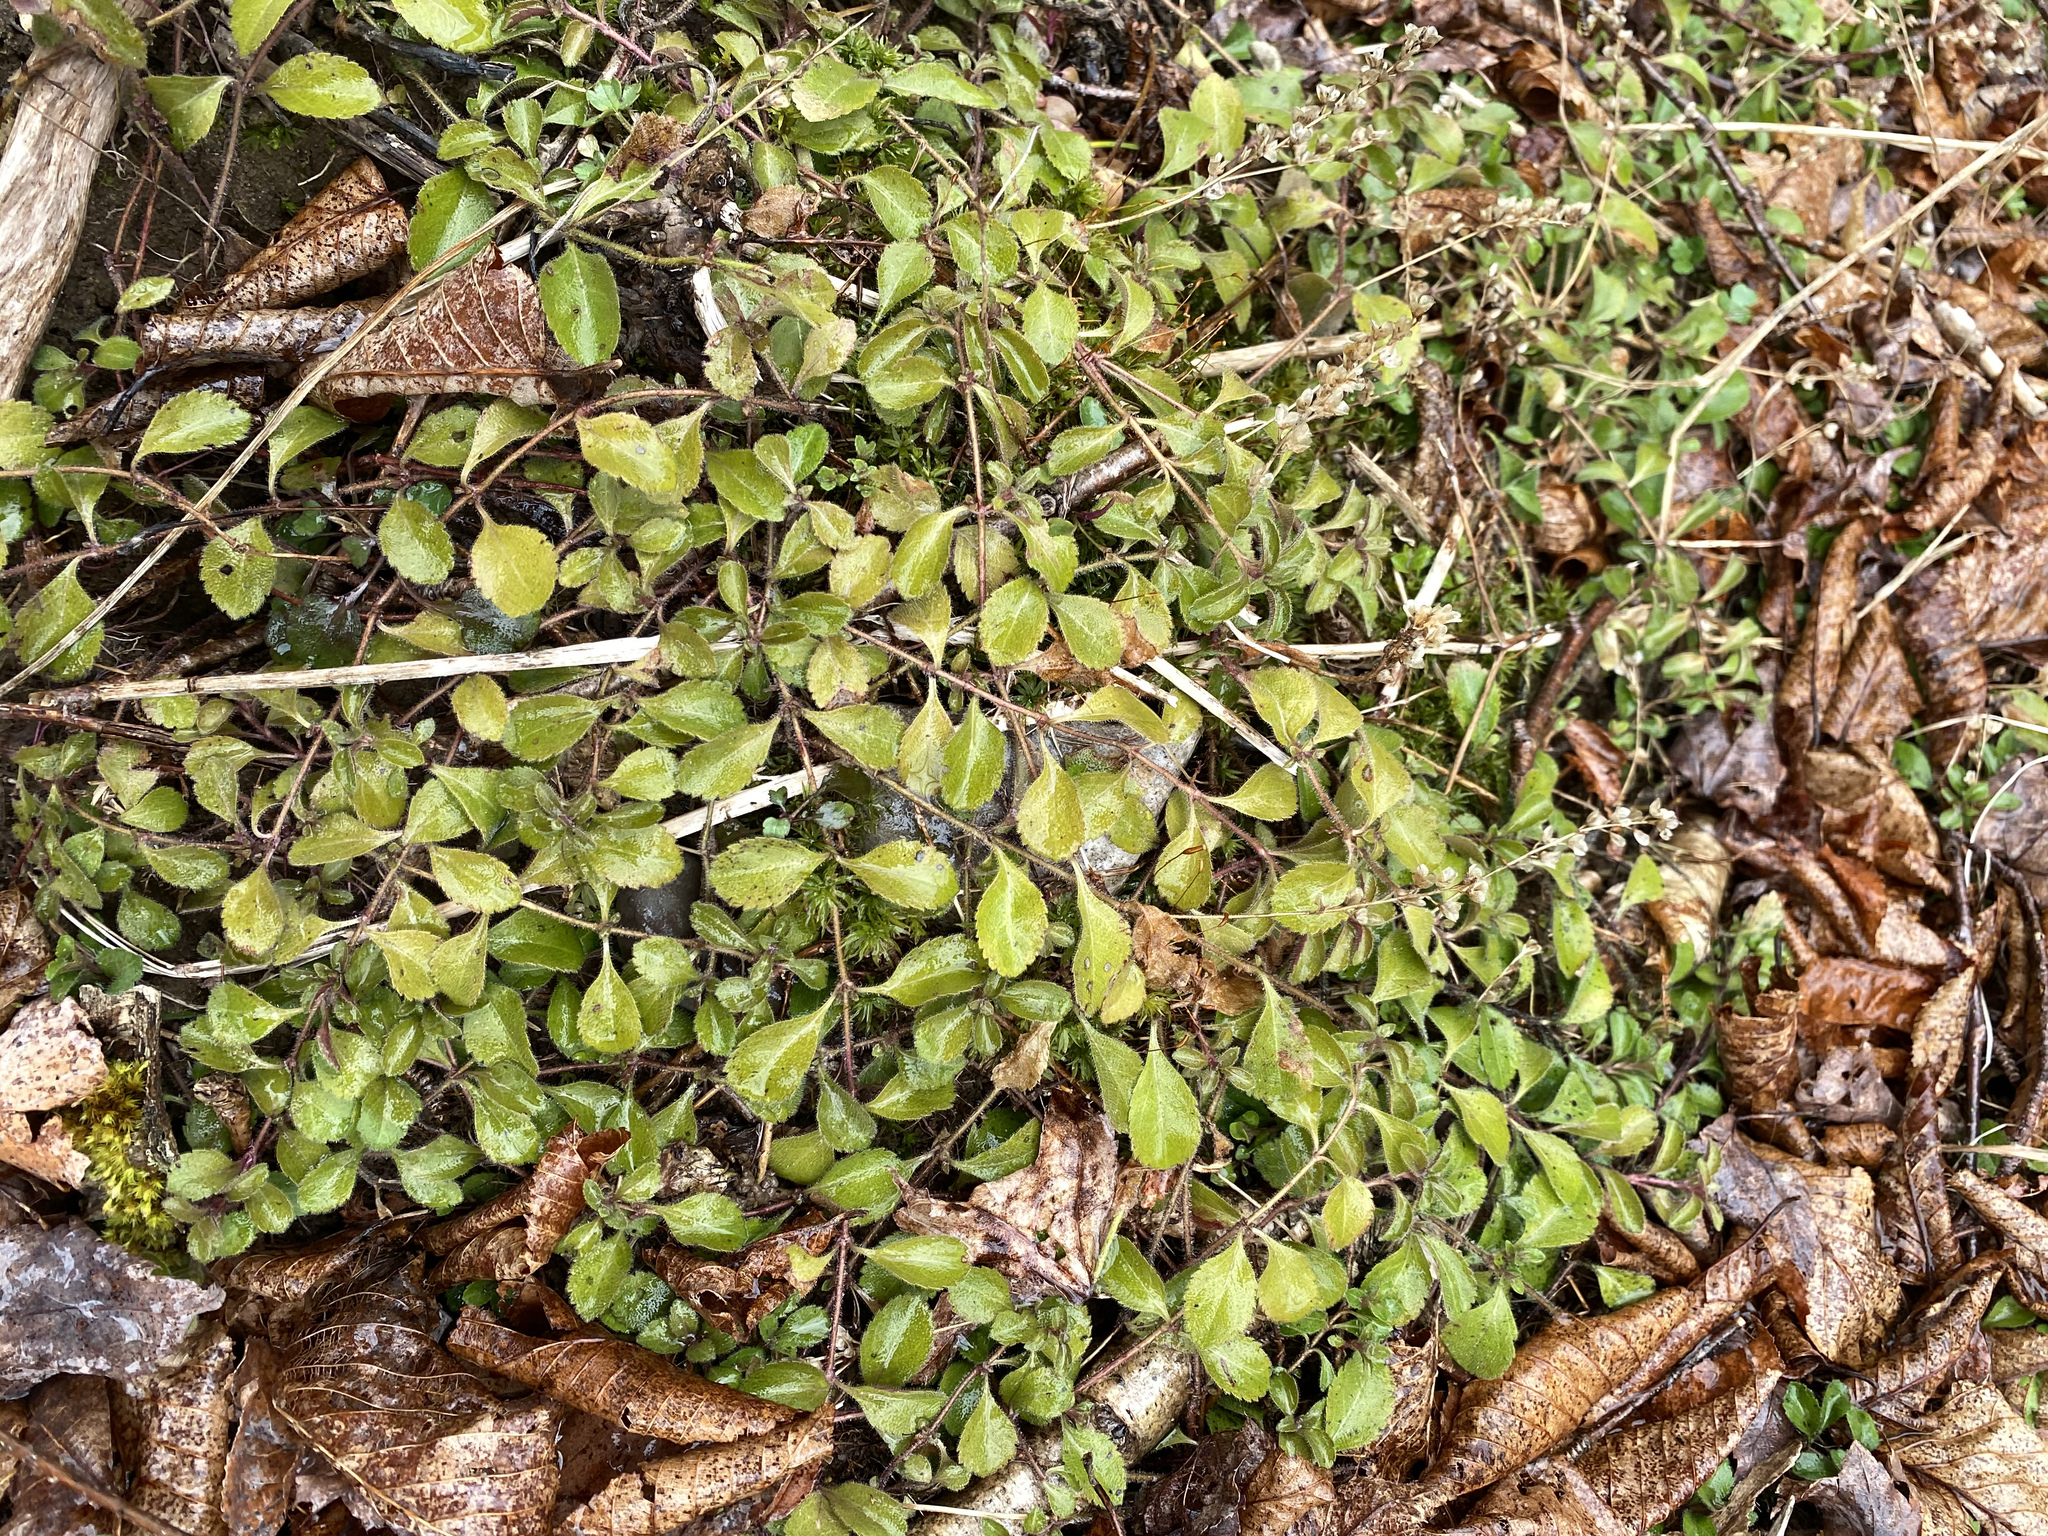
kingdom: Plantae
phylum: Tracheophyta
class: Magnoliopsida
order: Lamiales
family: Plantaginaceae
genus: Veronica
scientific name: Veronica officinalis
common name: Common speedwell
